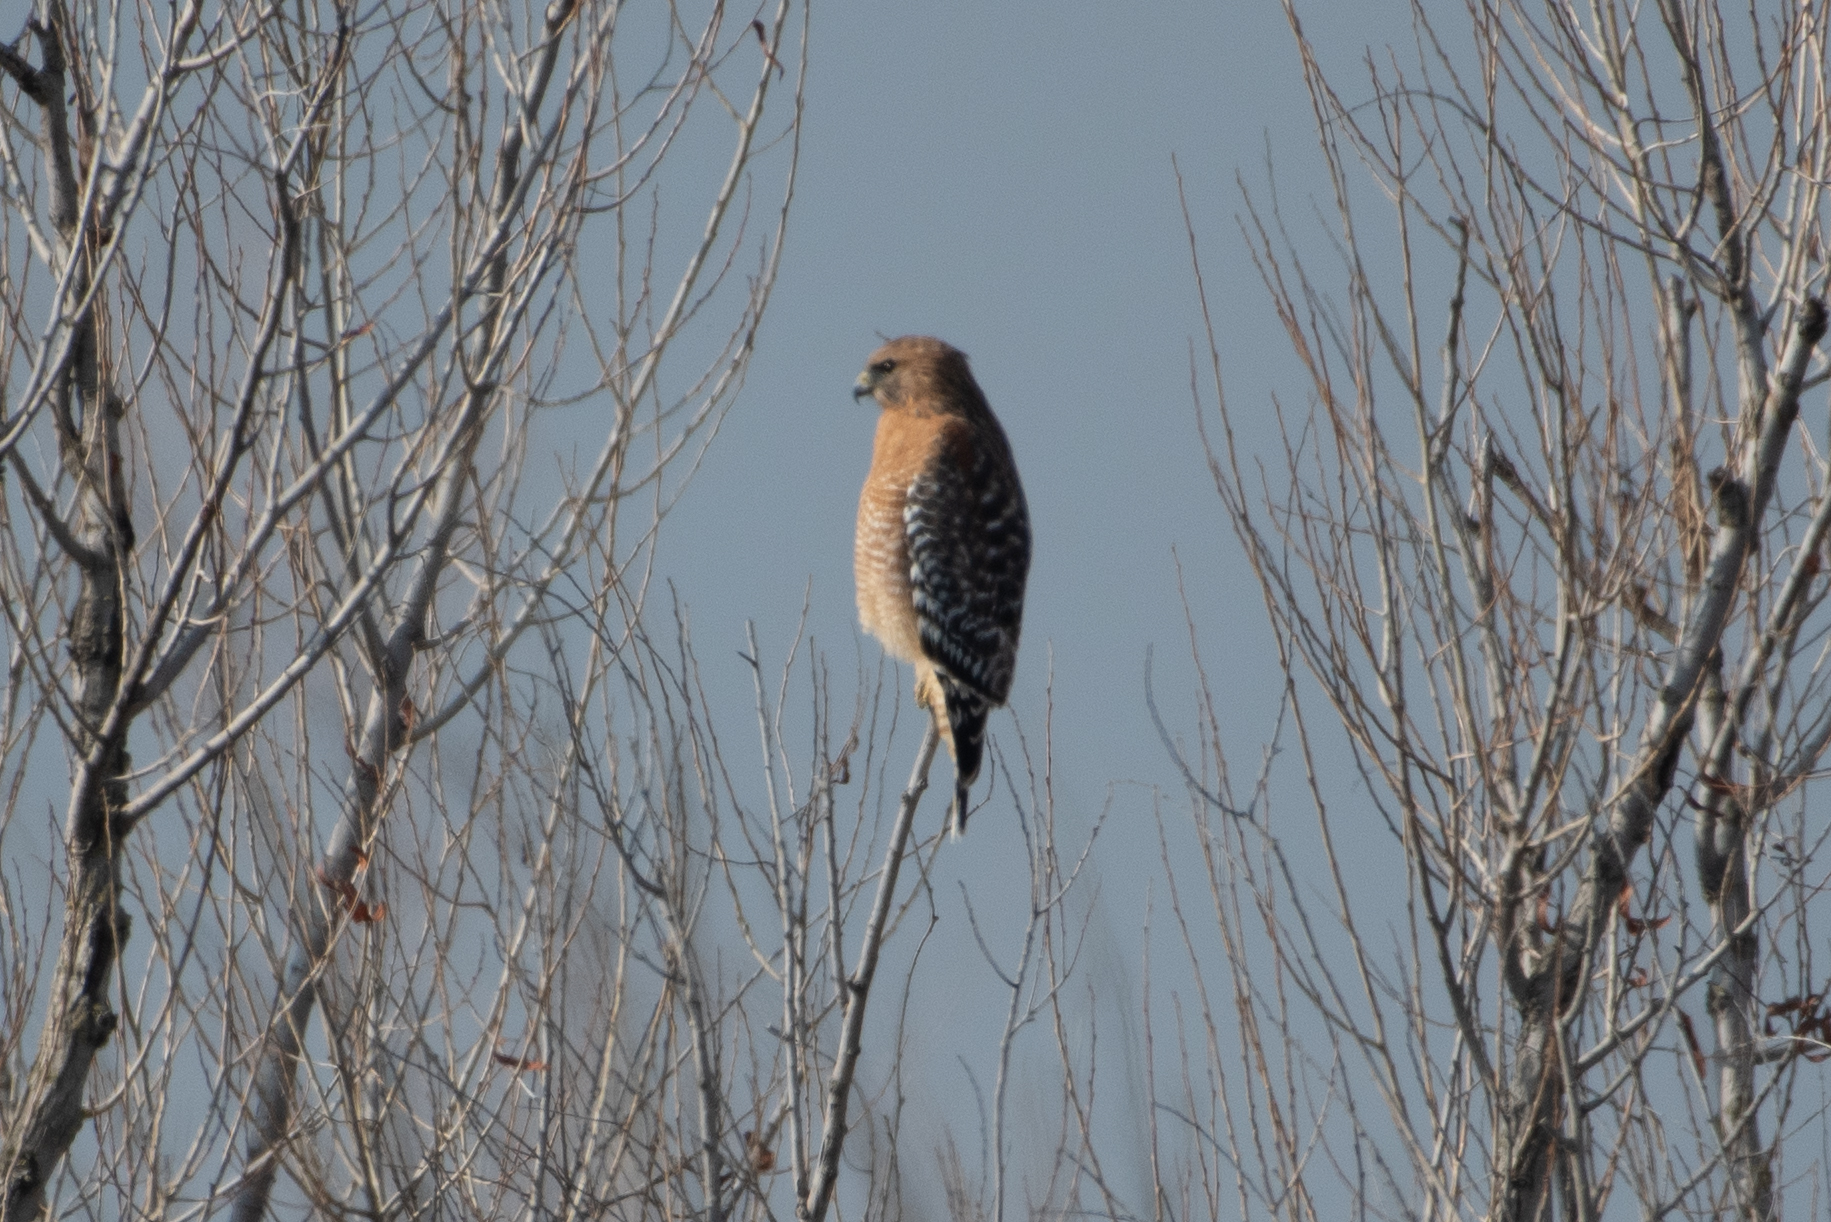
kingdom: Animalia
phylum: Chordata
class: Aves
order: Accipitriformes
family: Accipitridae
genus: Buteo
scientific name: Buteo lineatus
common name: Red-shouldered hawk
